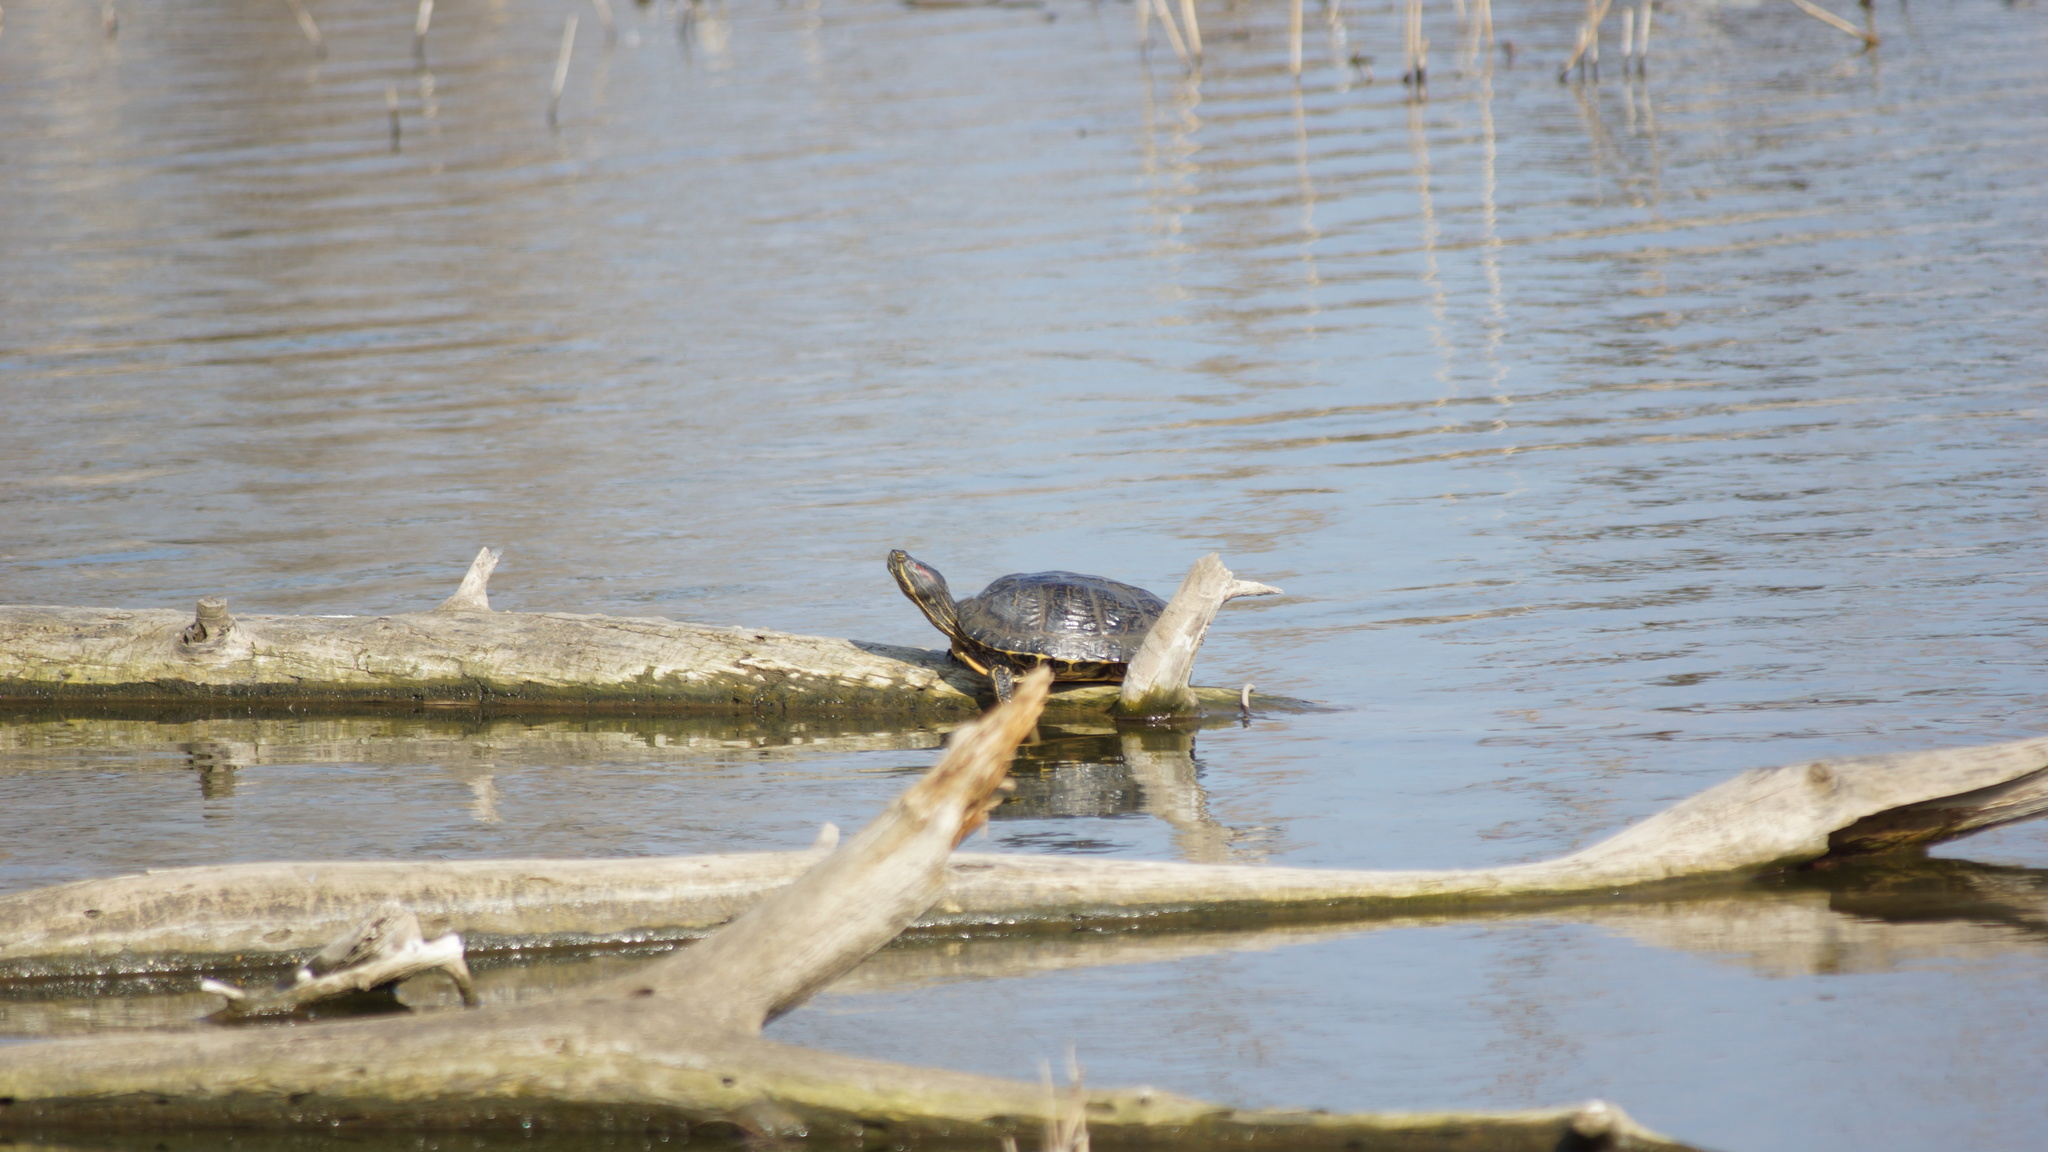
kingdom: Animalia
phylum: Chordata
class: Testudines
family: Emydidae
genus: Trachemys
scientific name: Trachemys scripta
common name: Slider
